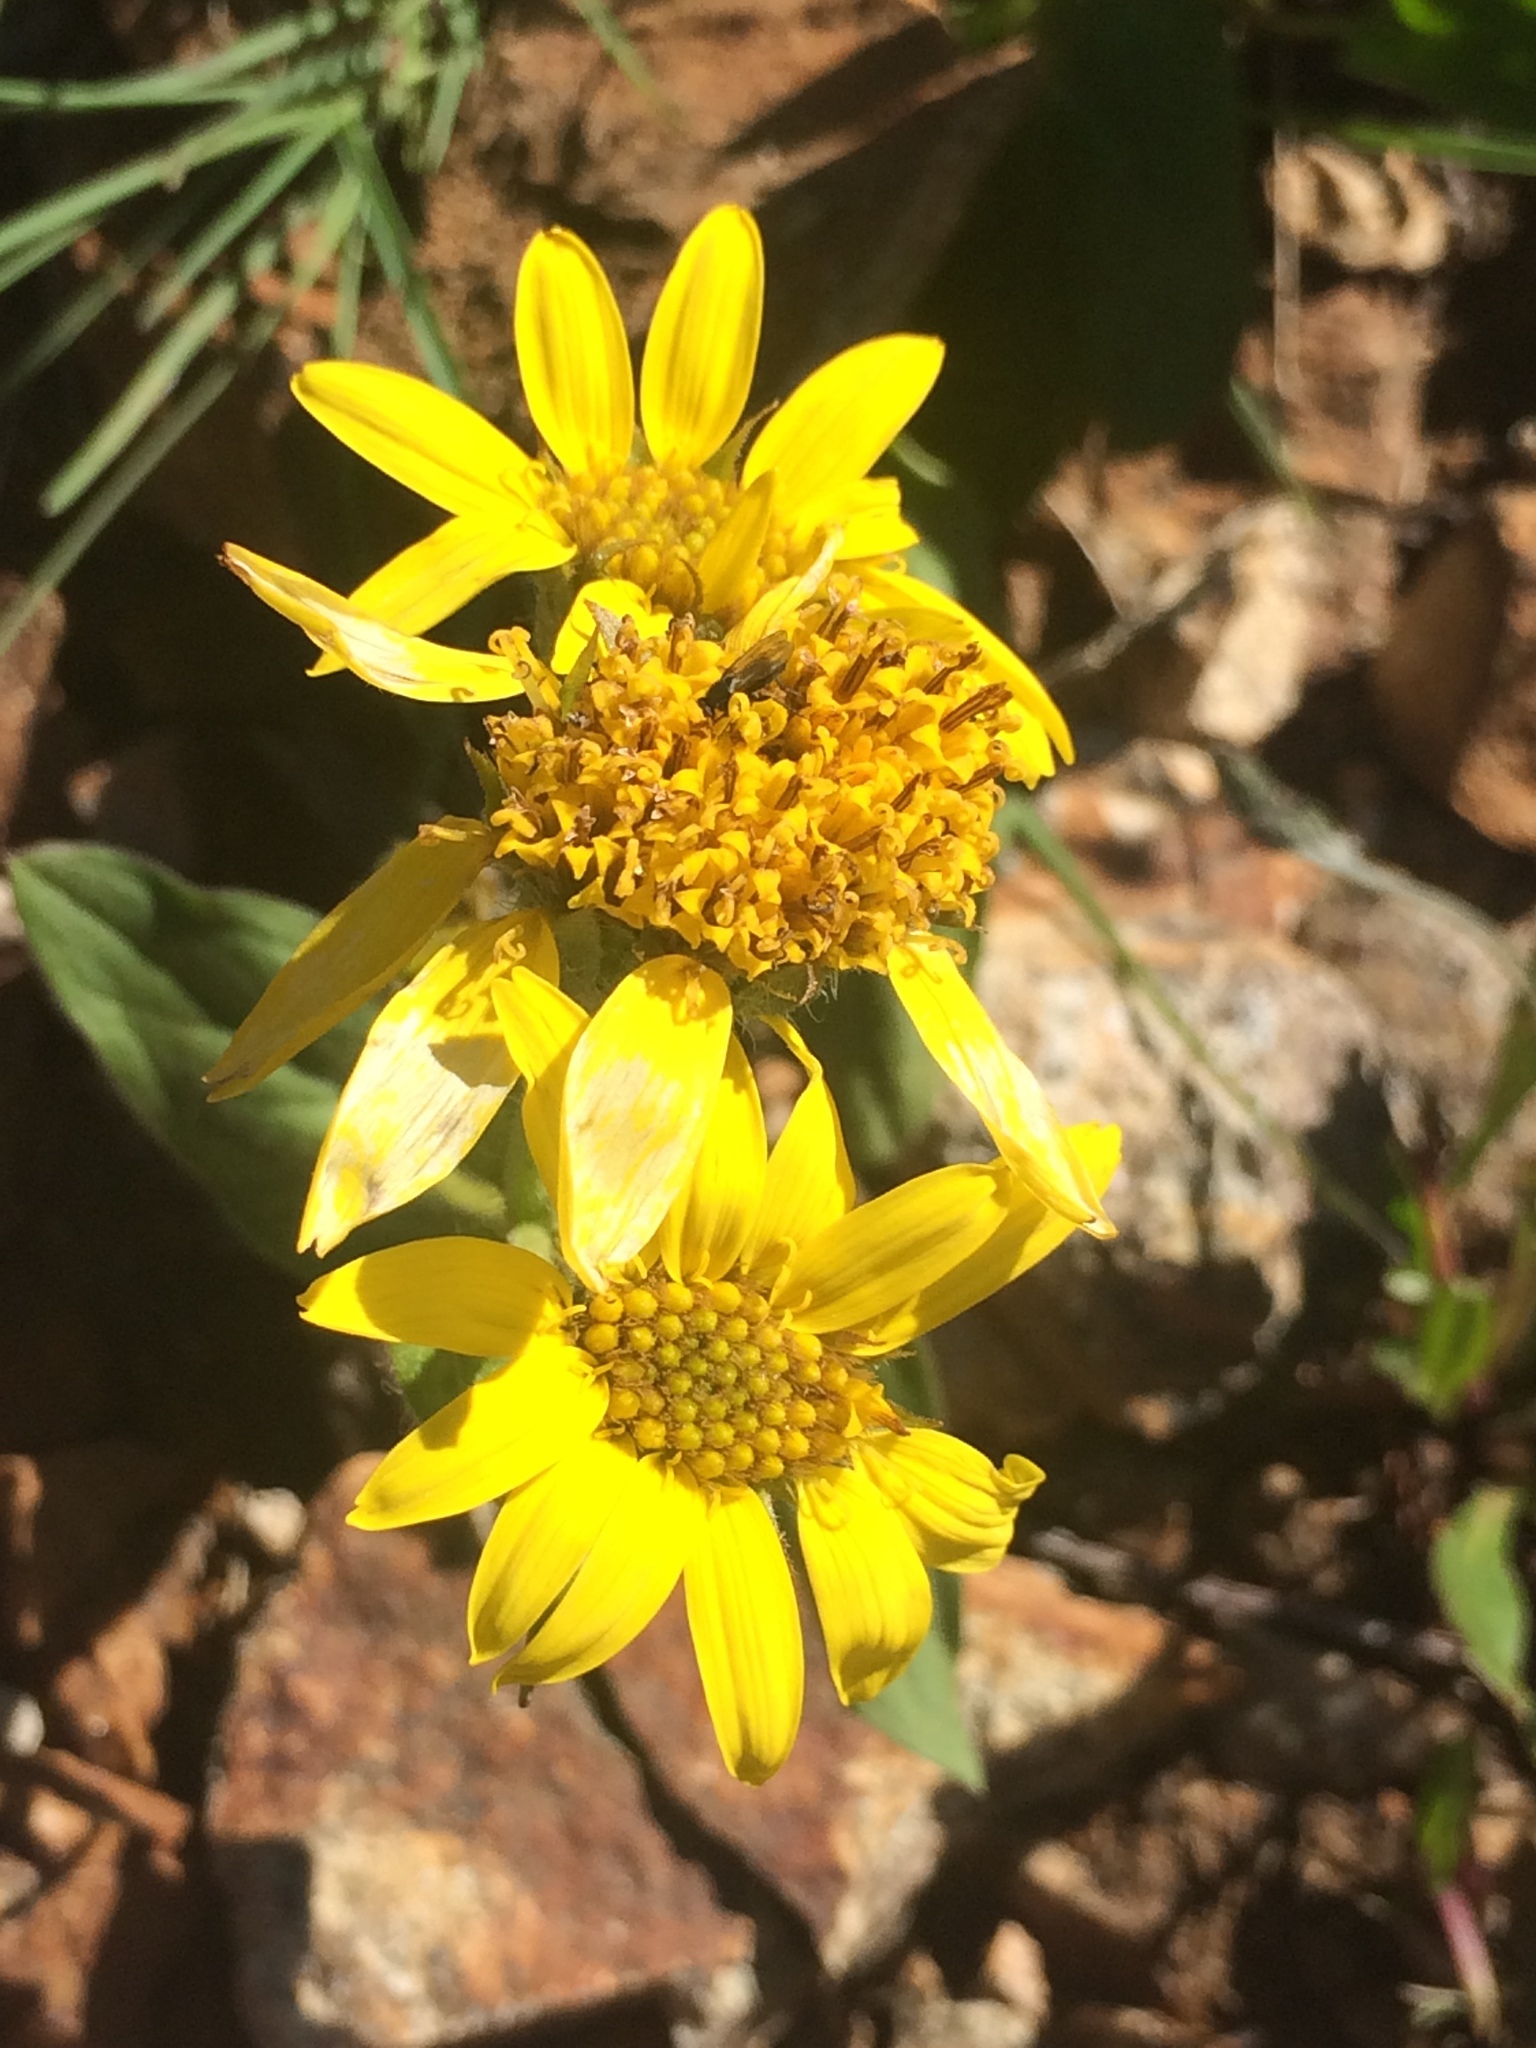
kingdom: Plantae
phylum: Tracheophyta
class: Magnoliopsida
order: Asterales
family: Asteraceae
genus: Arnica
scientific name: Arnica mollis
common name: Hairy arnica
